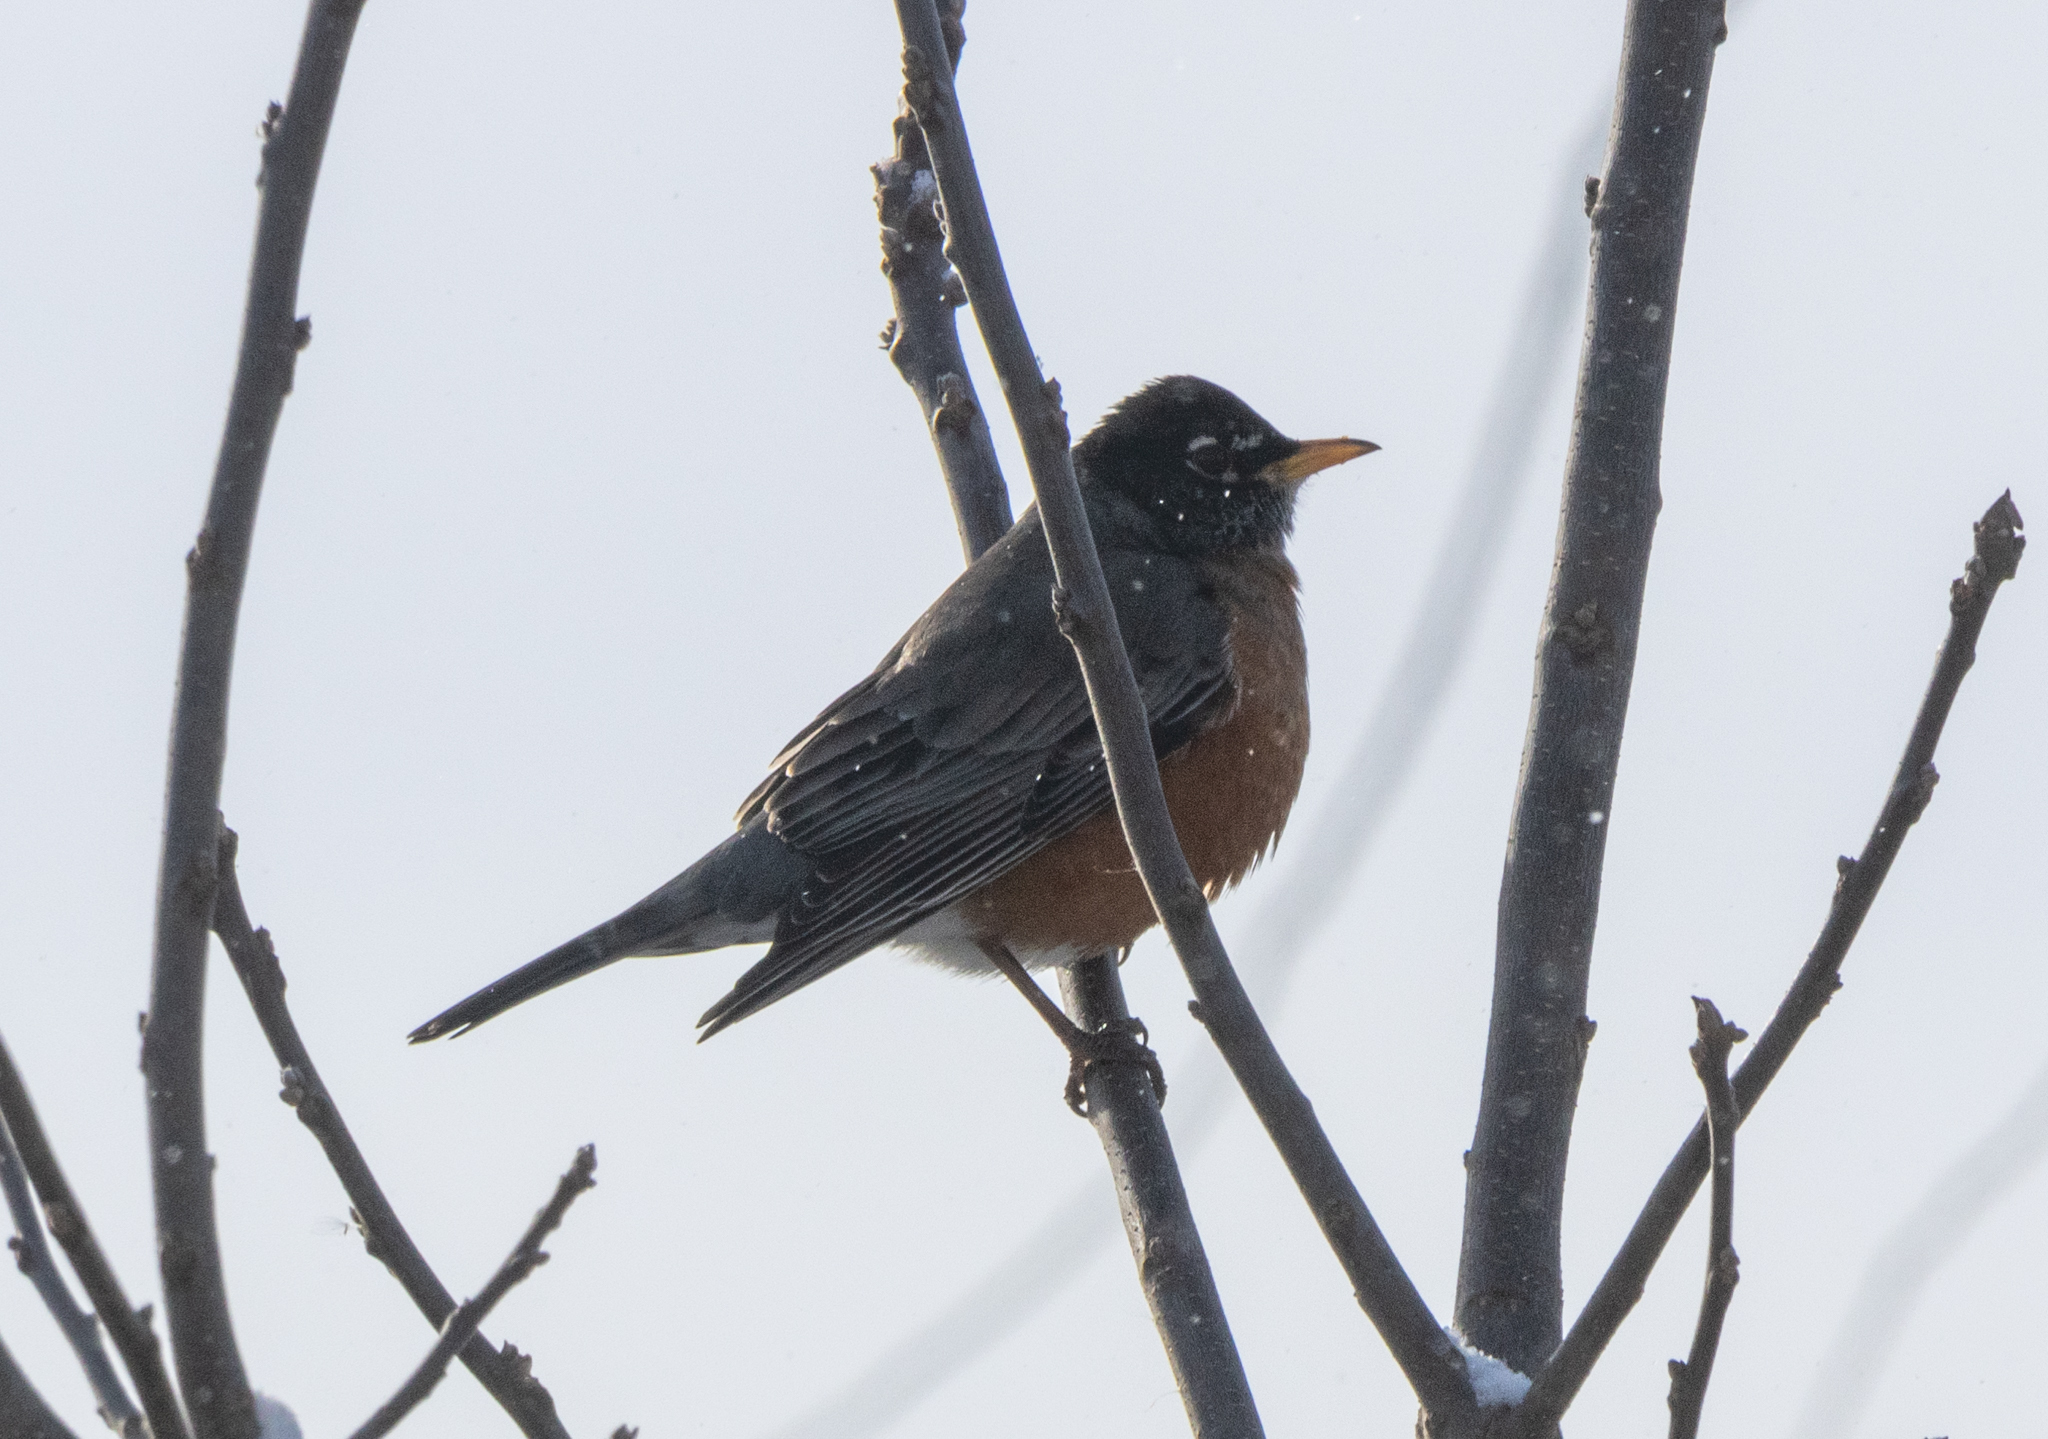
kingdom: Animalia
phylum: Chordata
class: Aves
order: Passeriformes
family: Turdidae
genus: Turdus
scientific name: Turdus migratorius
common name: American robin
